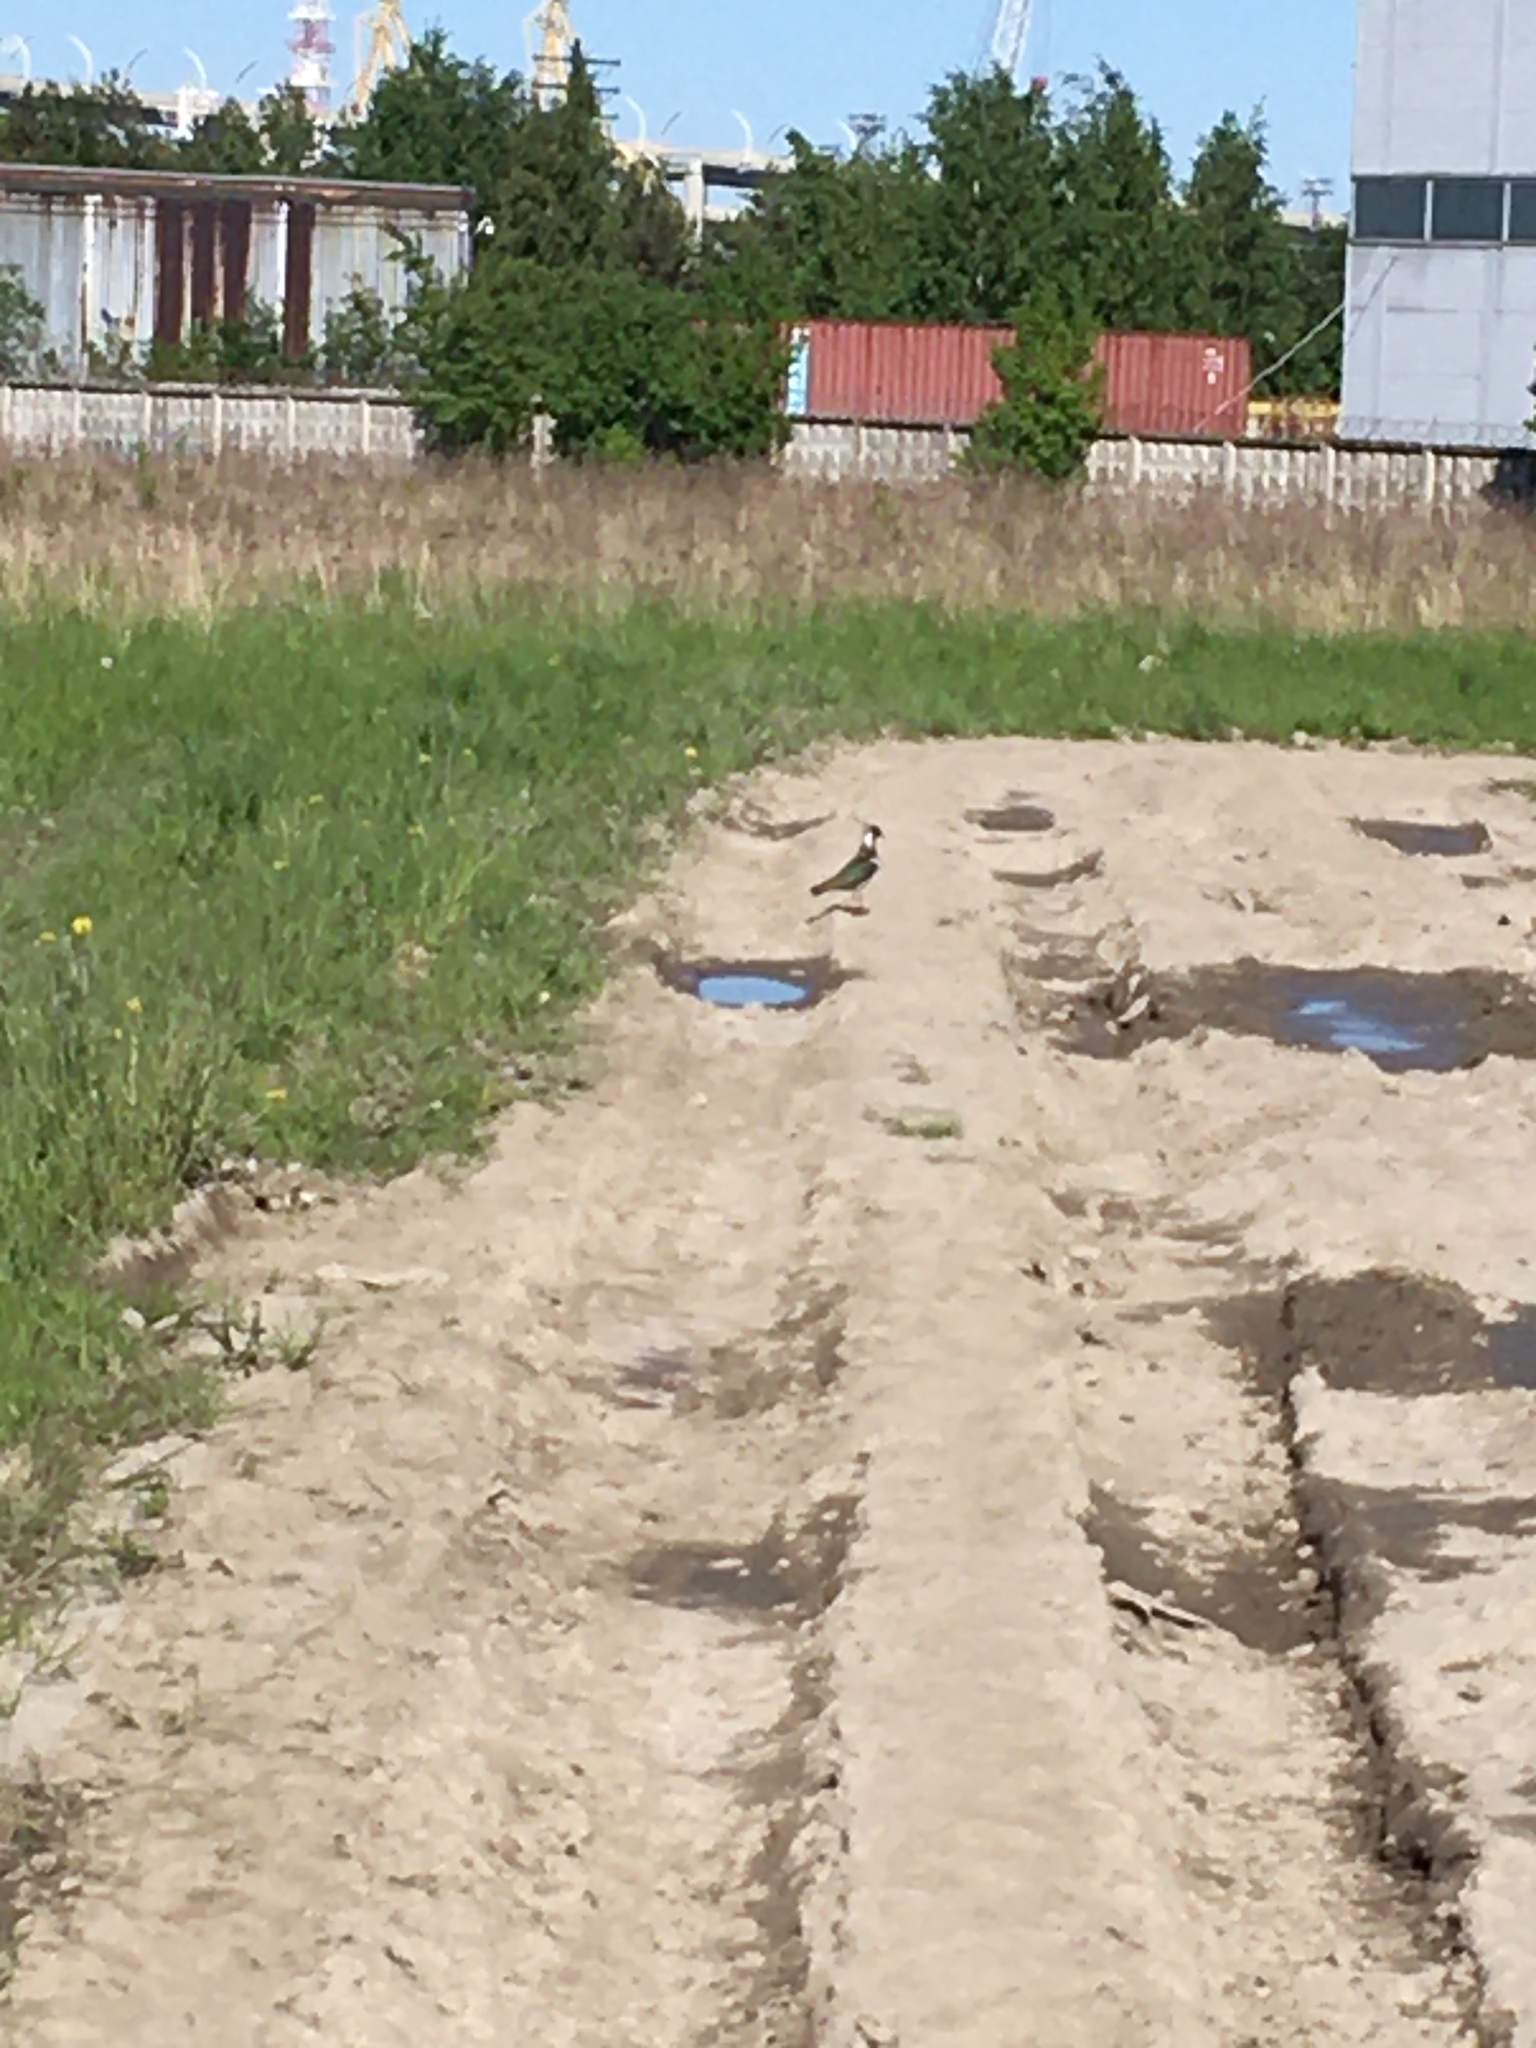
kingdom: Animalia
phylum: Chordata
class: Aves
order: Charadriiformes
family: Charadriidae
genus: Vanellus
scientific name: Vanellus vanellus
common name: Northern lapwing
